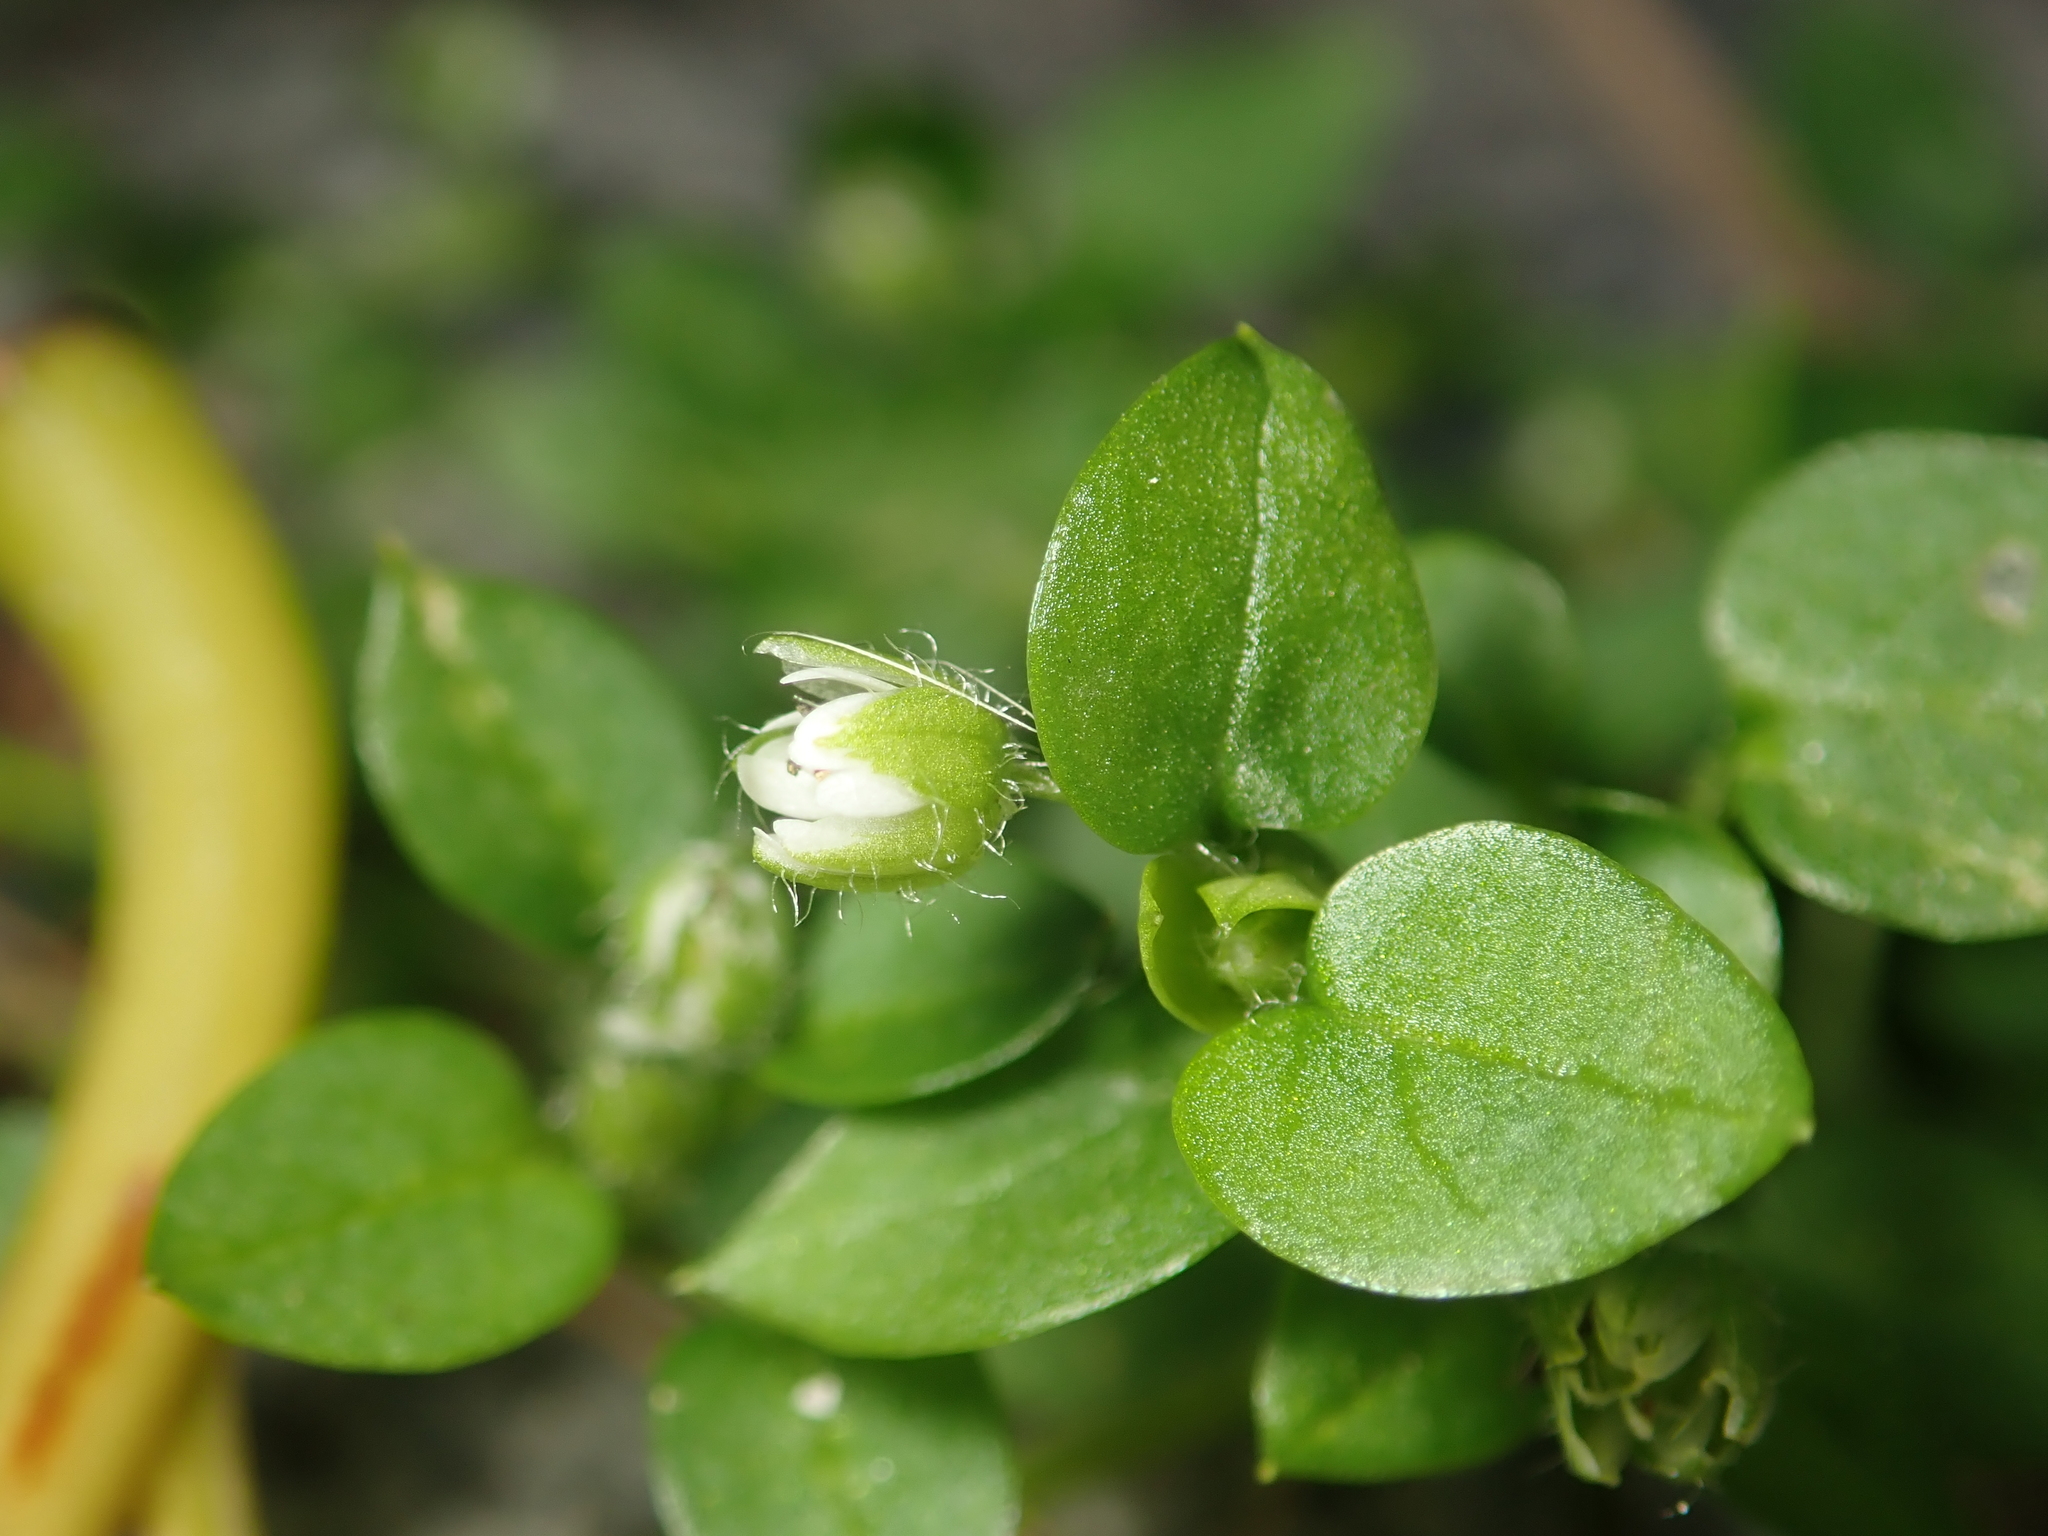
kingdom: Plantae
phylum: Tracheophyta
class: Magnoliopsida
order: Caryophyllales
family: Caryophyllaceae
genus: Stellaria
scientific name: Stellaria media
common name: Common chickweed
